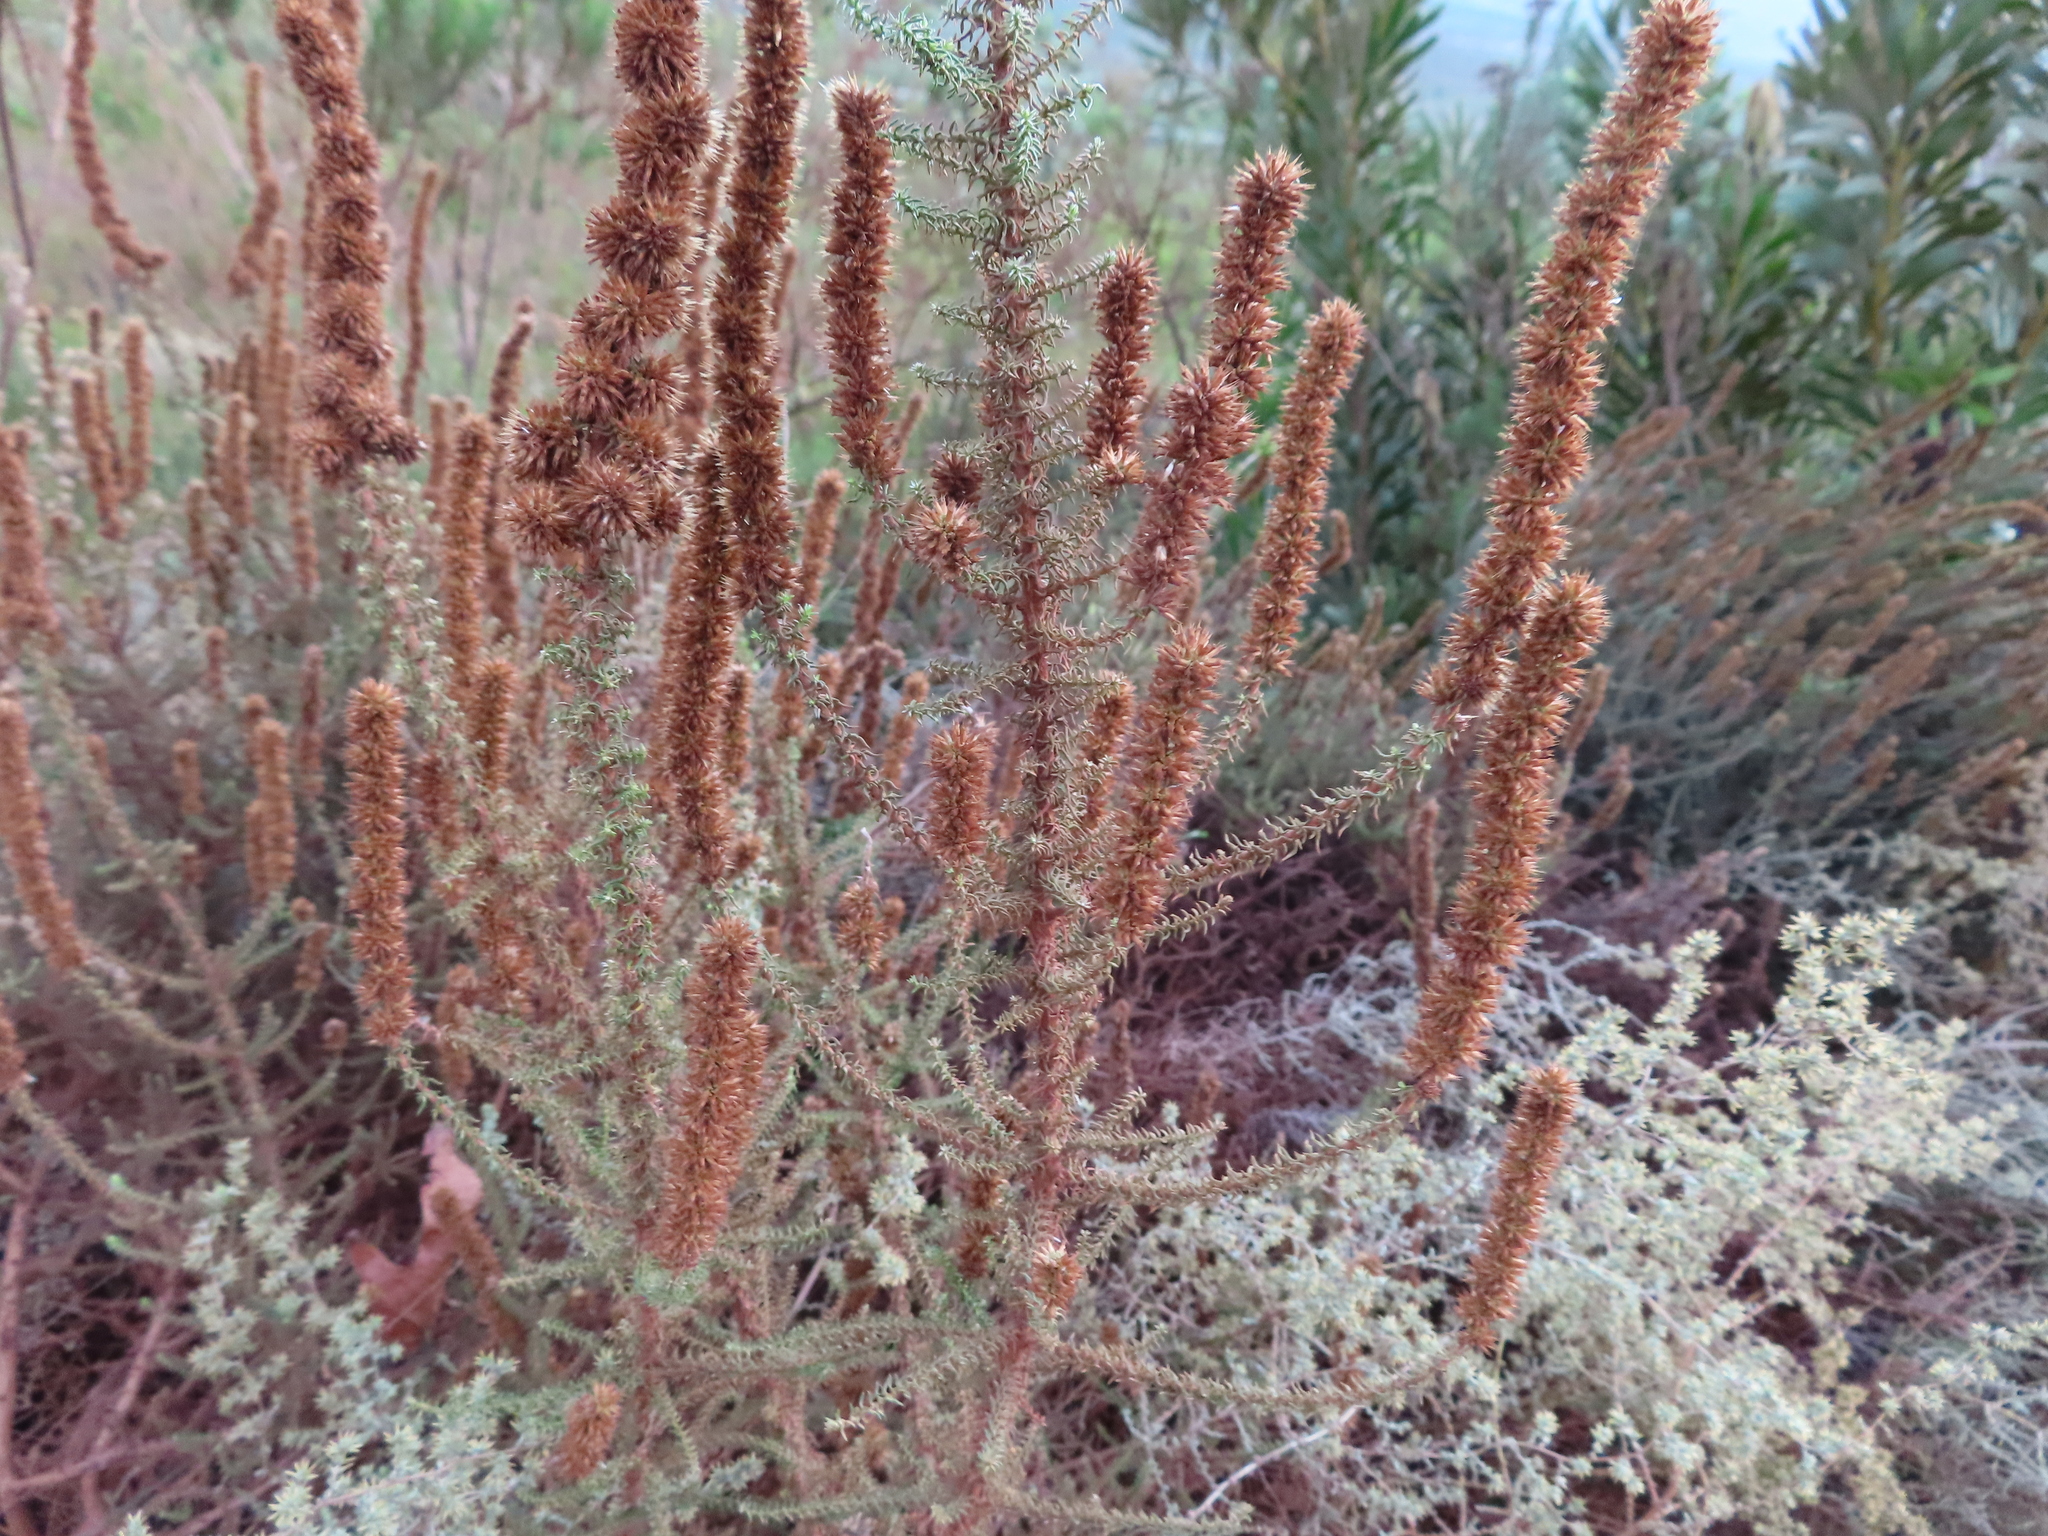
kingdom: Plantae
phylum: Tracheophyta
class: Magnoliopsida
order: Asterales
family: Asteraceae
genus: Seriphium
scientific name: Seriphium cinereum
